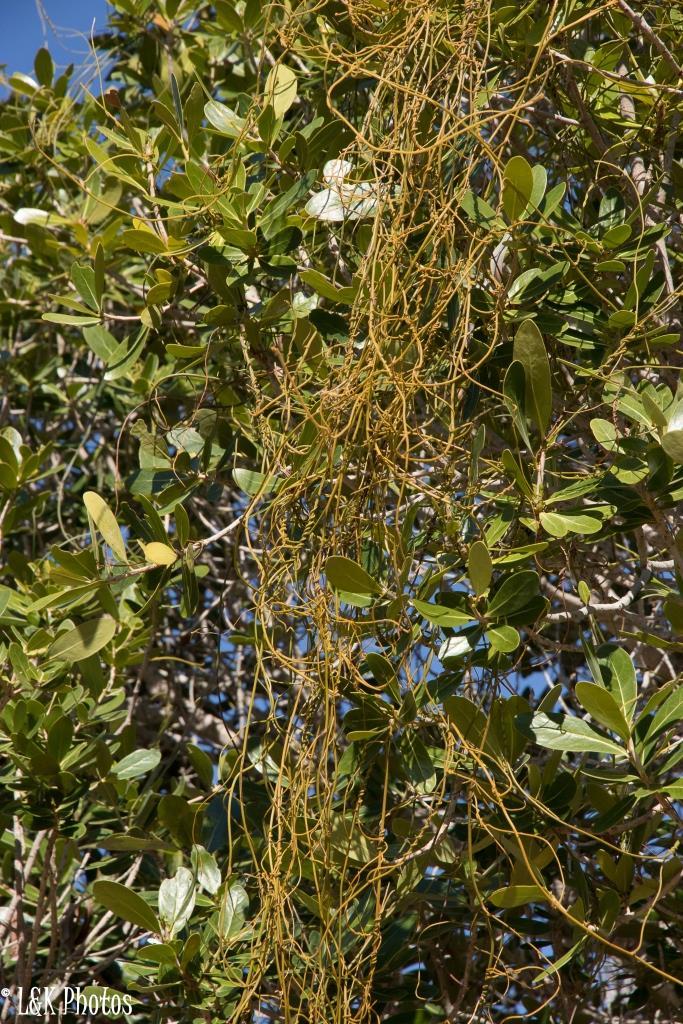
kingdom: Plantae
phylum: Tracheophyta
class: Magnoliopsida
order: Laurales
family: Lauraceae
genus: Cassytha
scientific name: Cassytha filiformis
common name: Dodder-laurel
